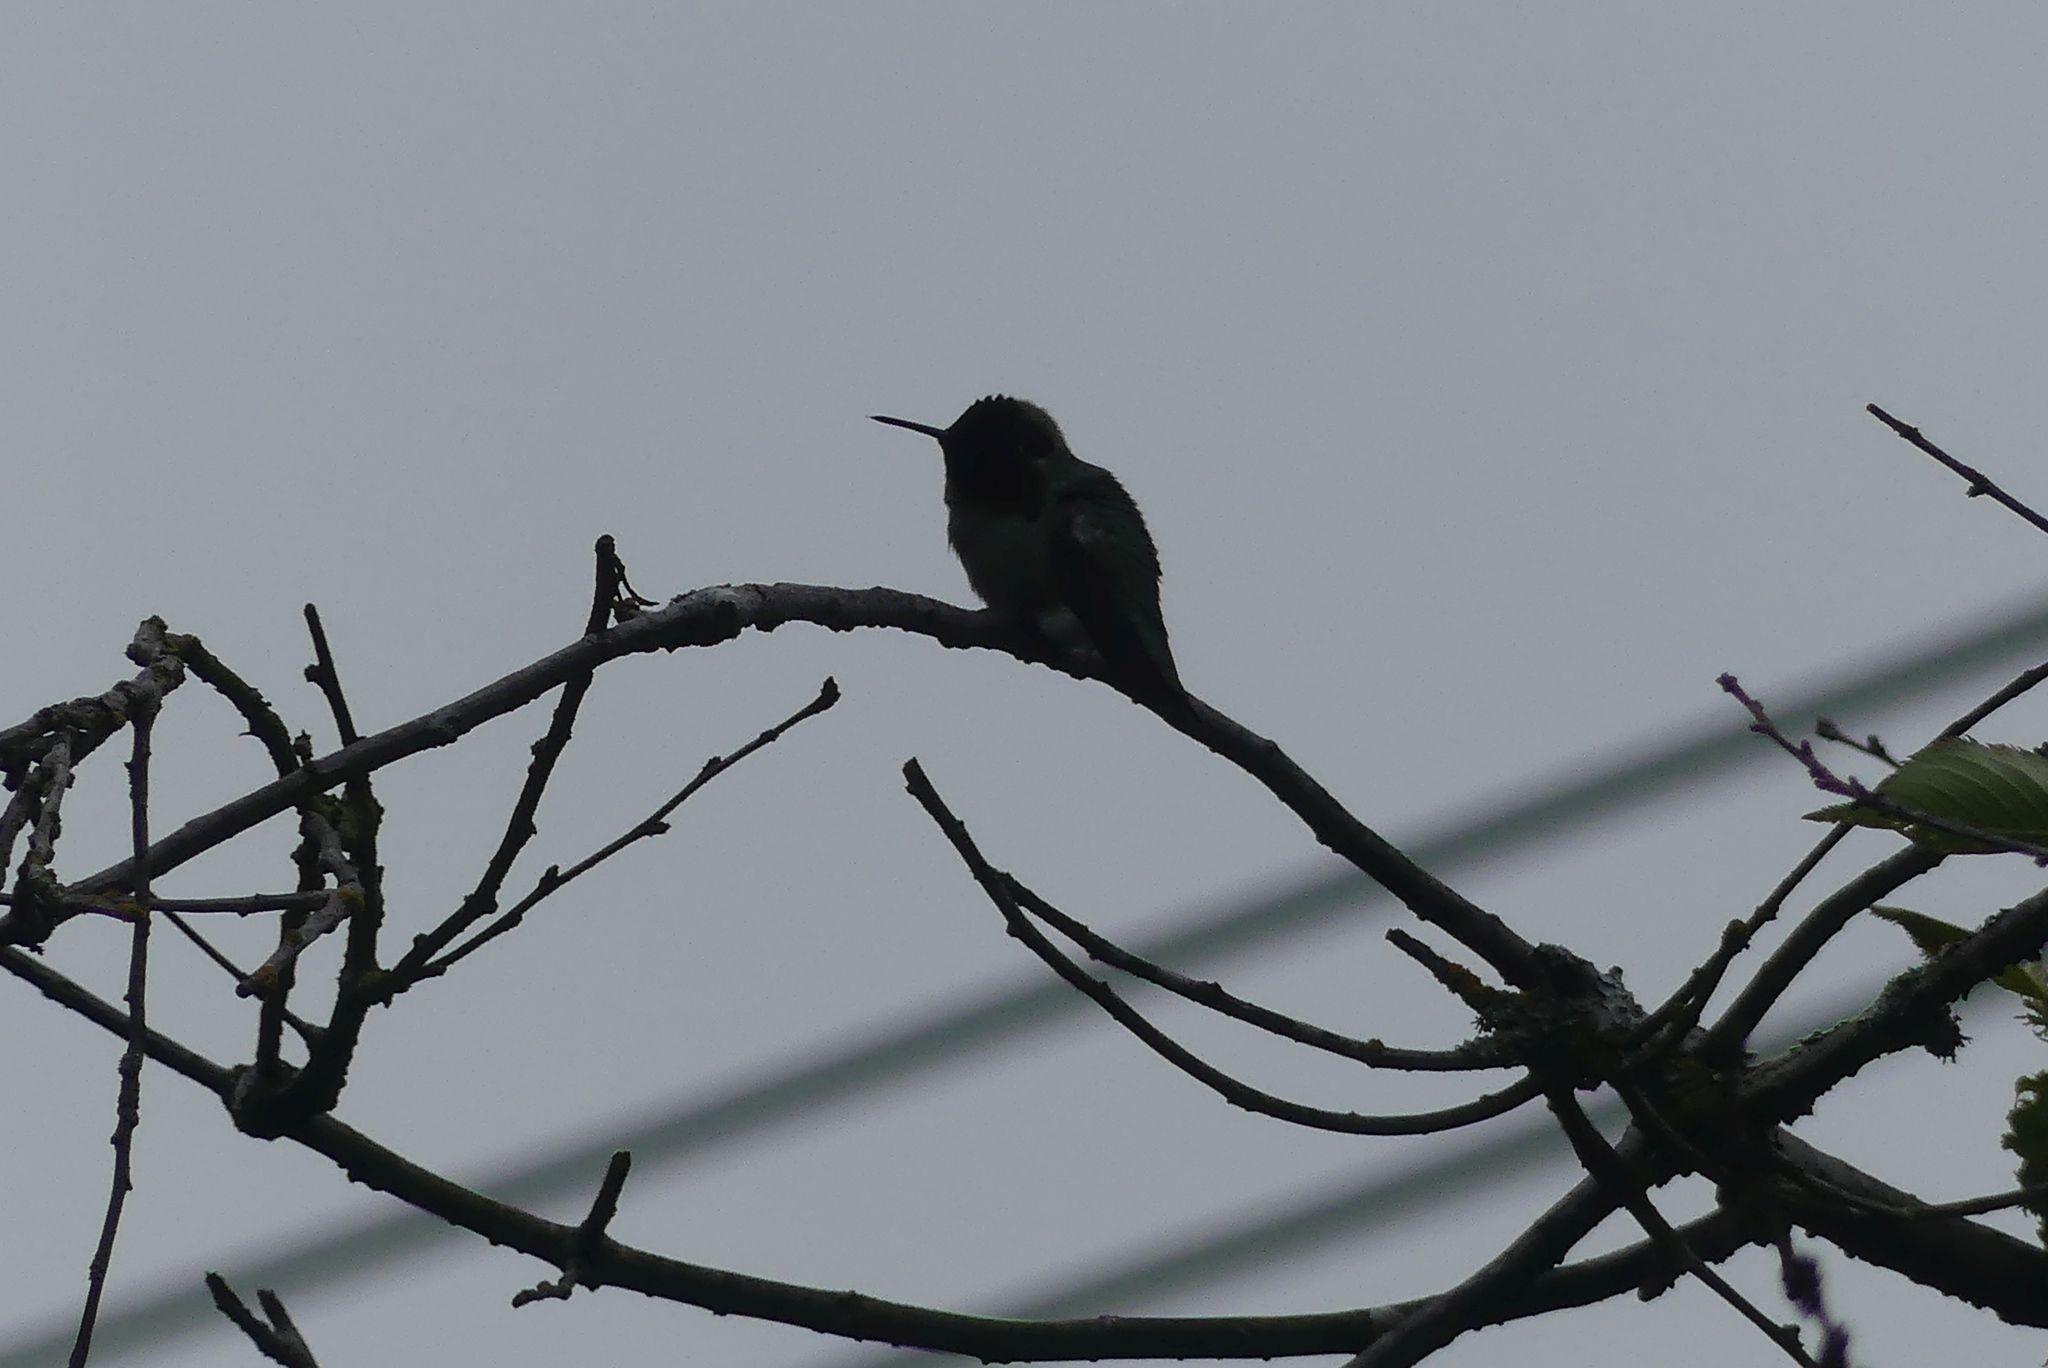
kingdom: Animalia
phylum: Chordata
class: Aves
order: Apodiformes
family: Trochilidae
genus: Calypte
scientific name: Calypte anna
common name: Anna's hummingbird
